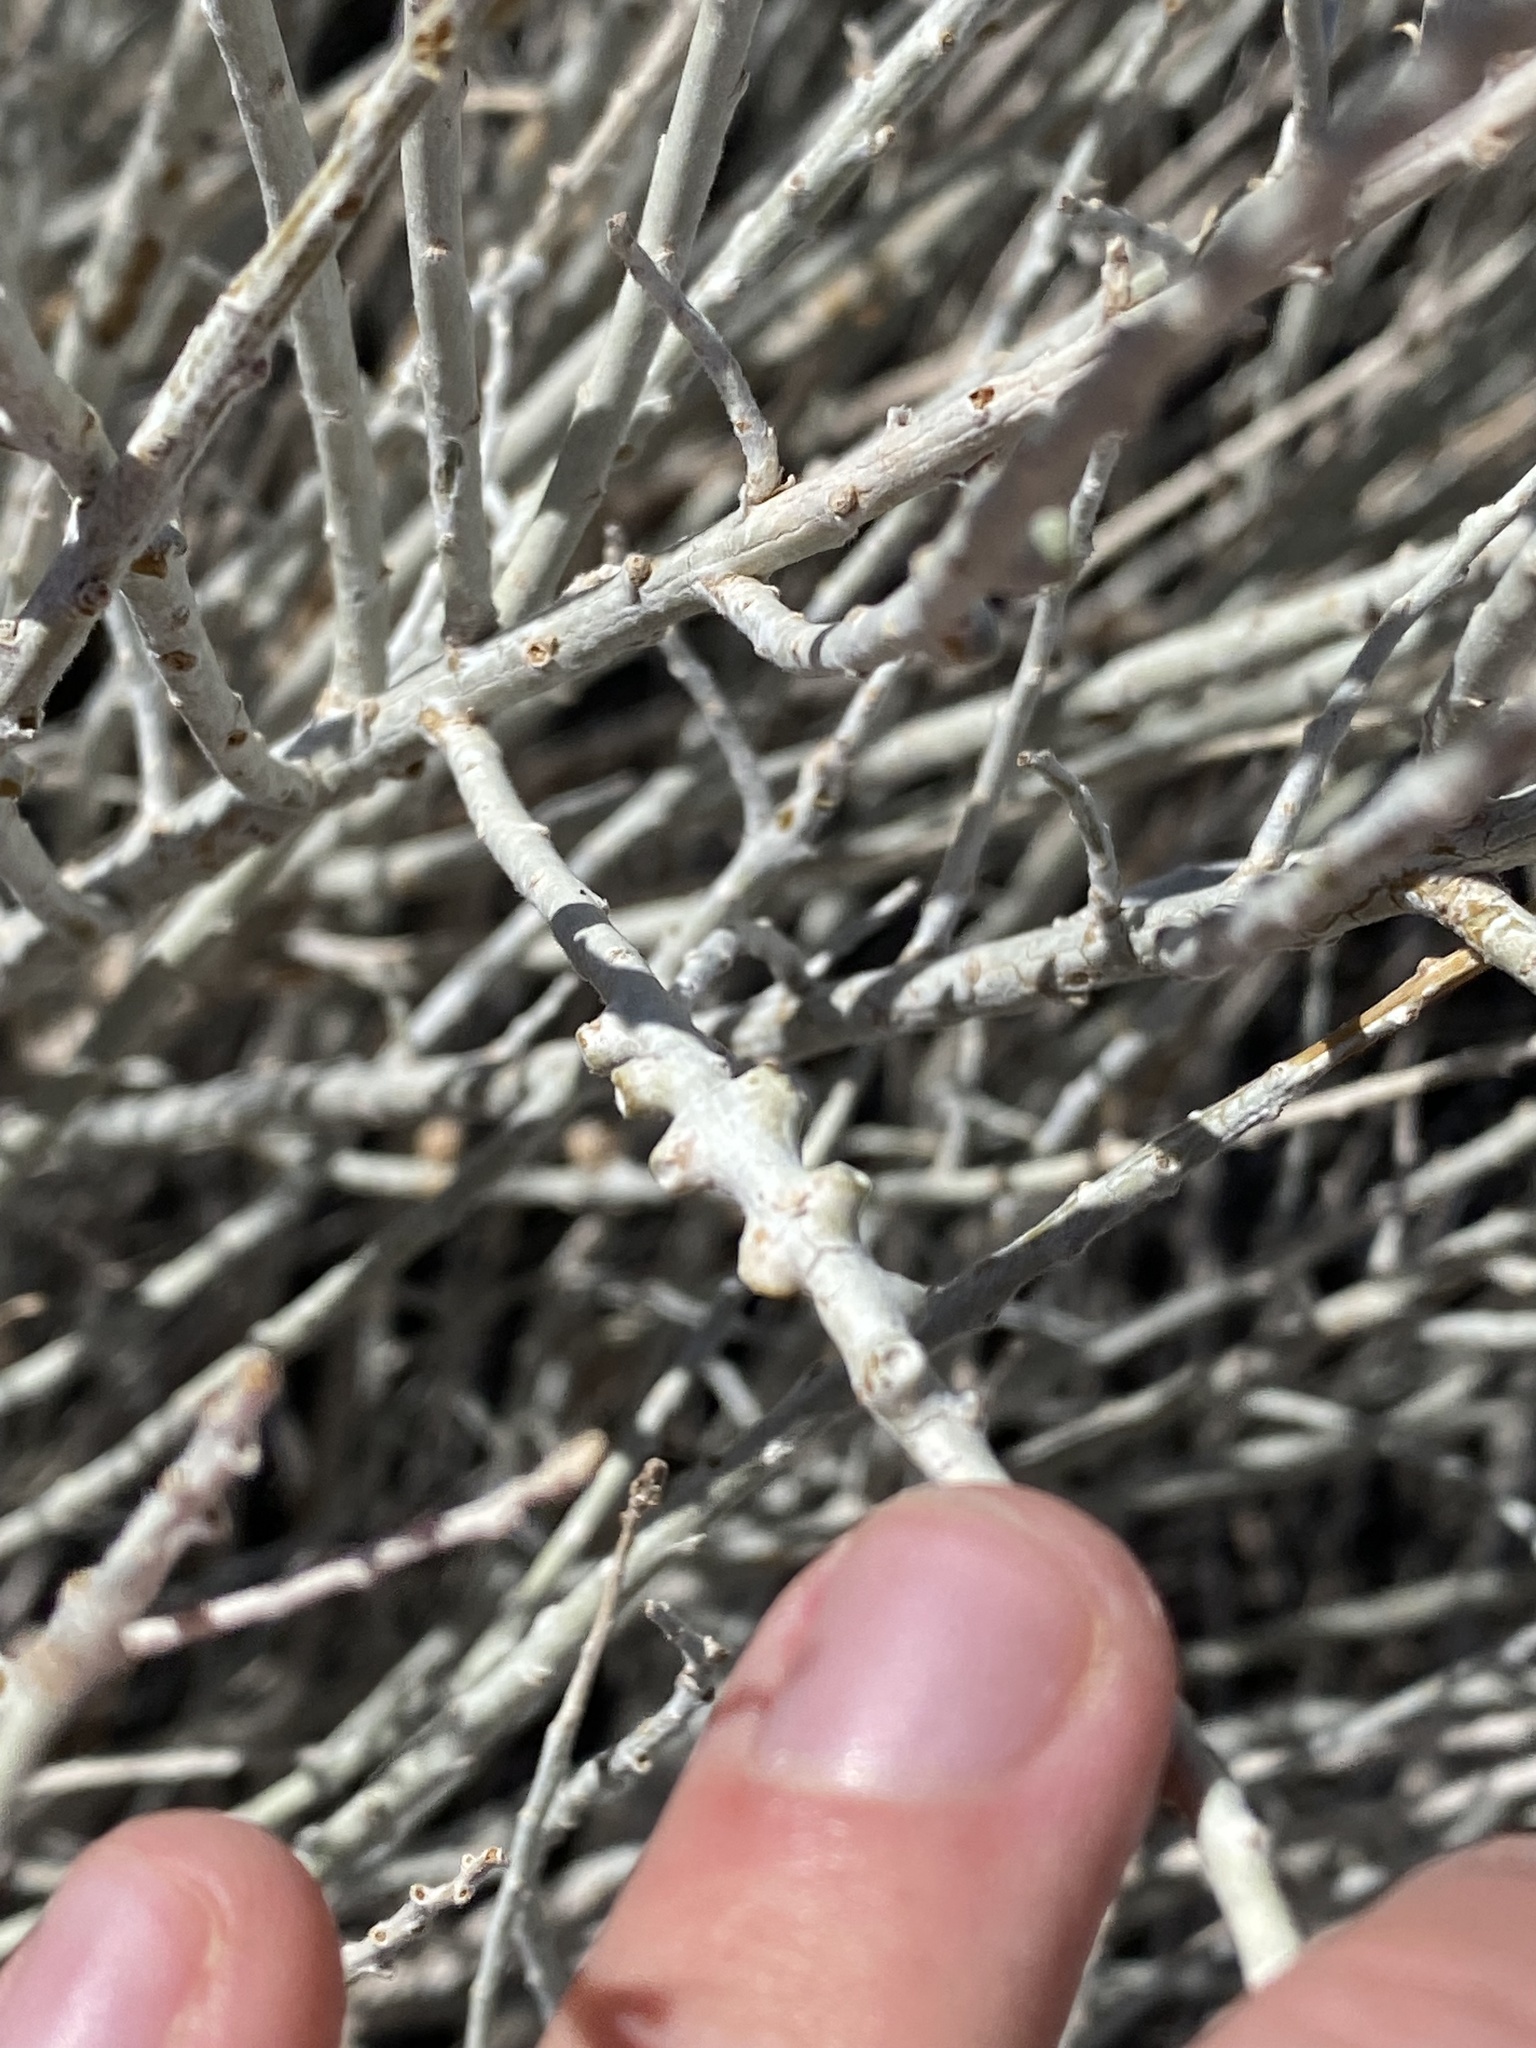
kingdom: Animalia
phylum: Arthropoda
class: Insecta
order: Diptera
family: Cecidomyiidae
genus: Rhopalomyia
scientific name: Rhopalomyia chrysothamni
